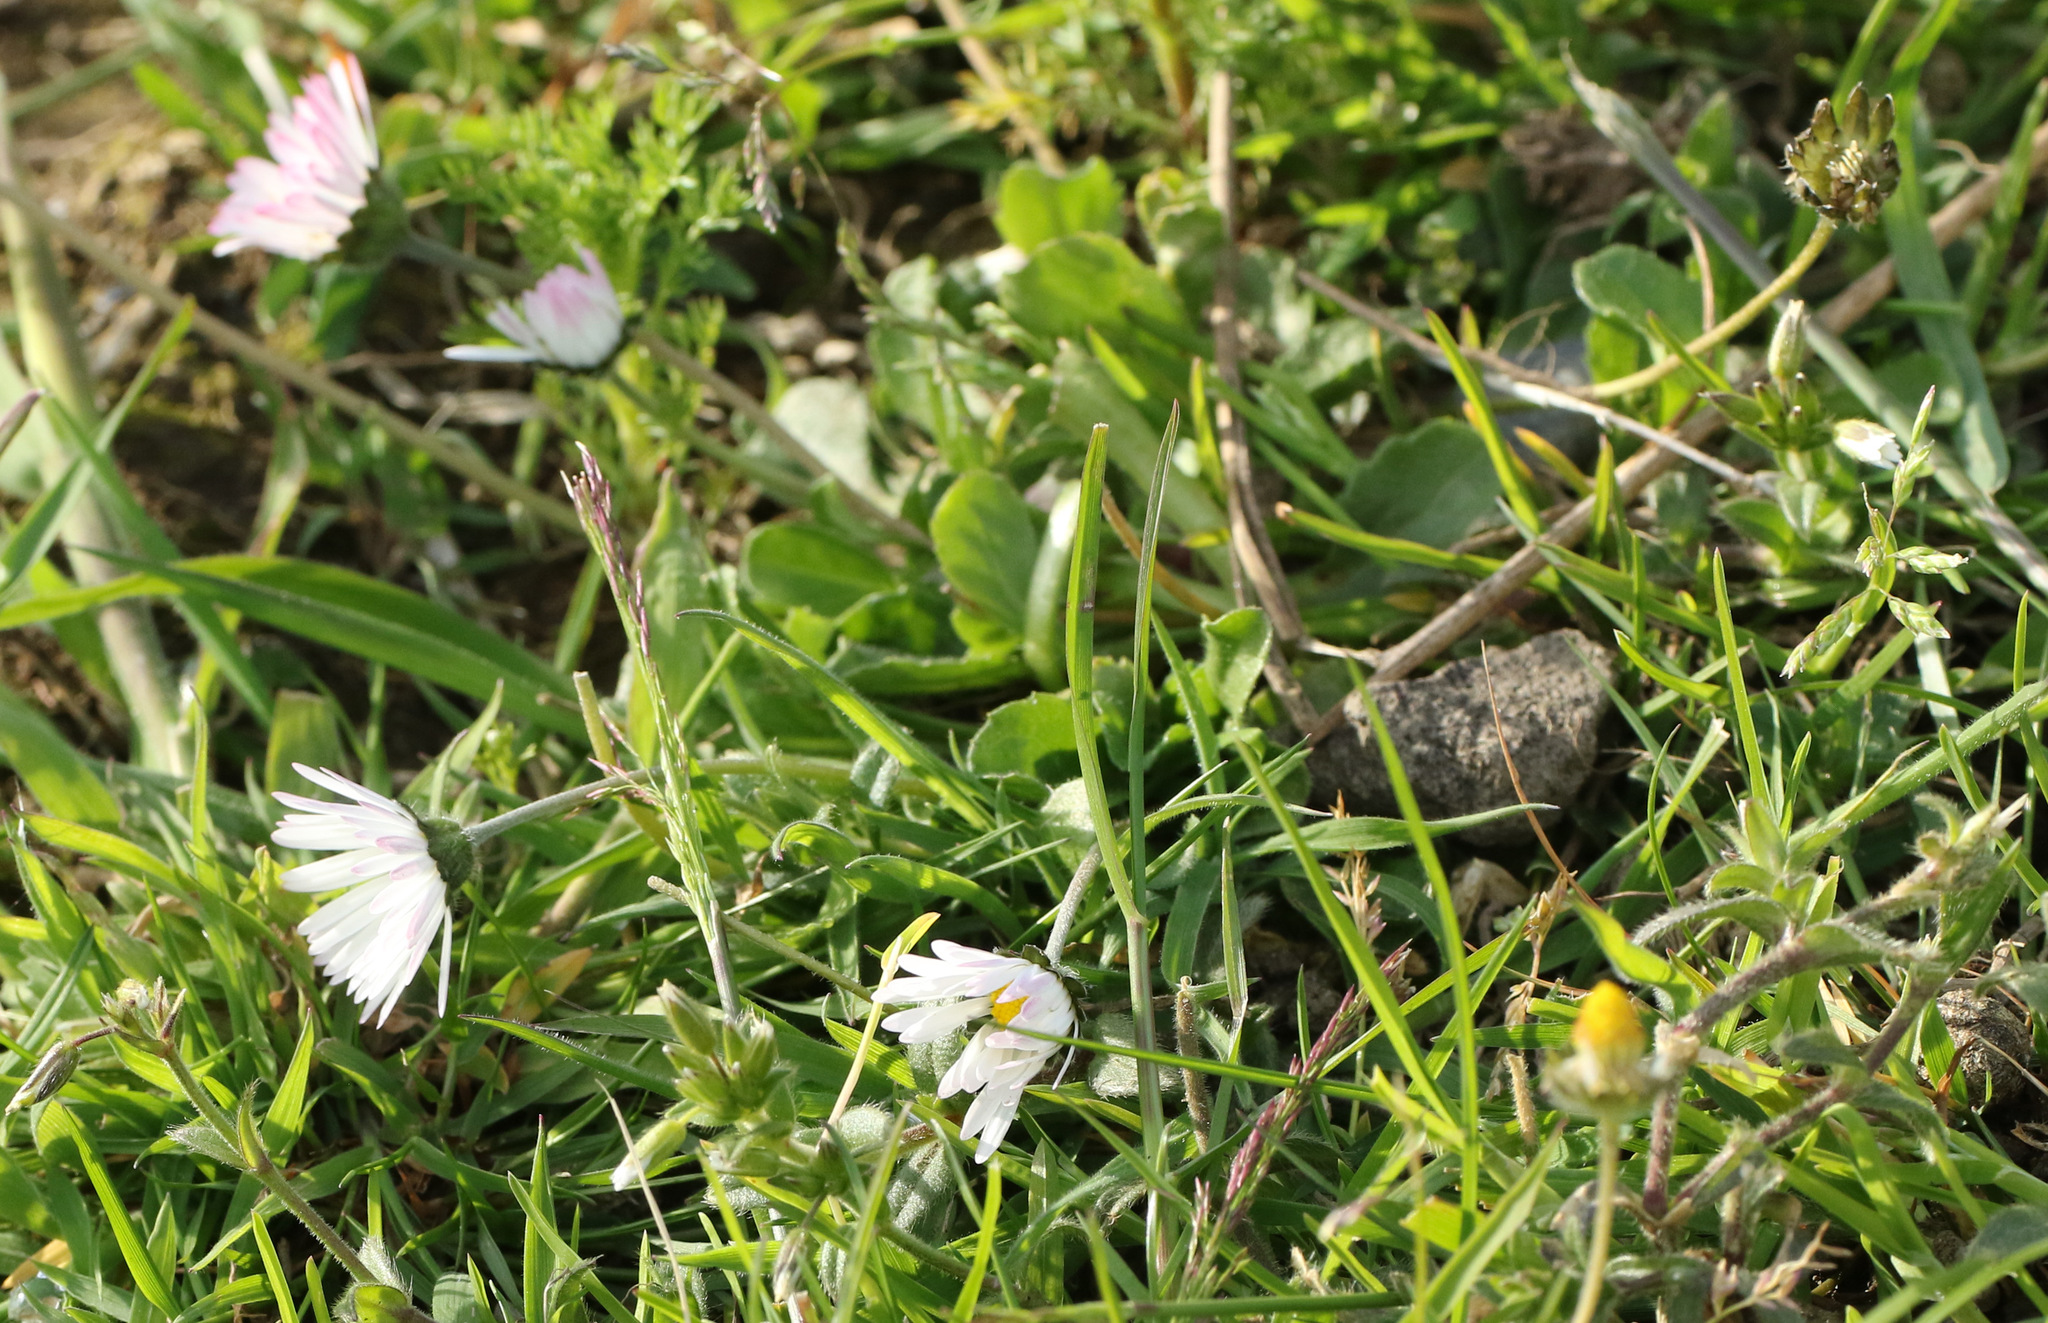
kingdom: Plantae
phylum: Tracheophyta
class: Magnoliopsida
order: Asterales
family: Asteraceae
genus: Bellis
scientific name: Bellis perennis
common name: Lawndaisy
